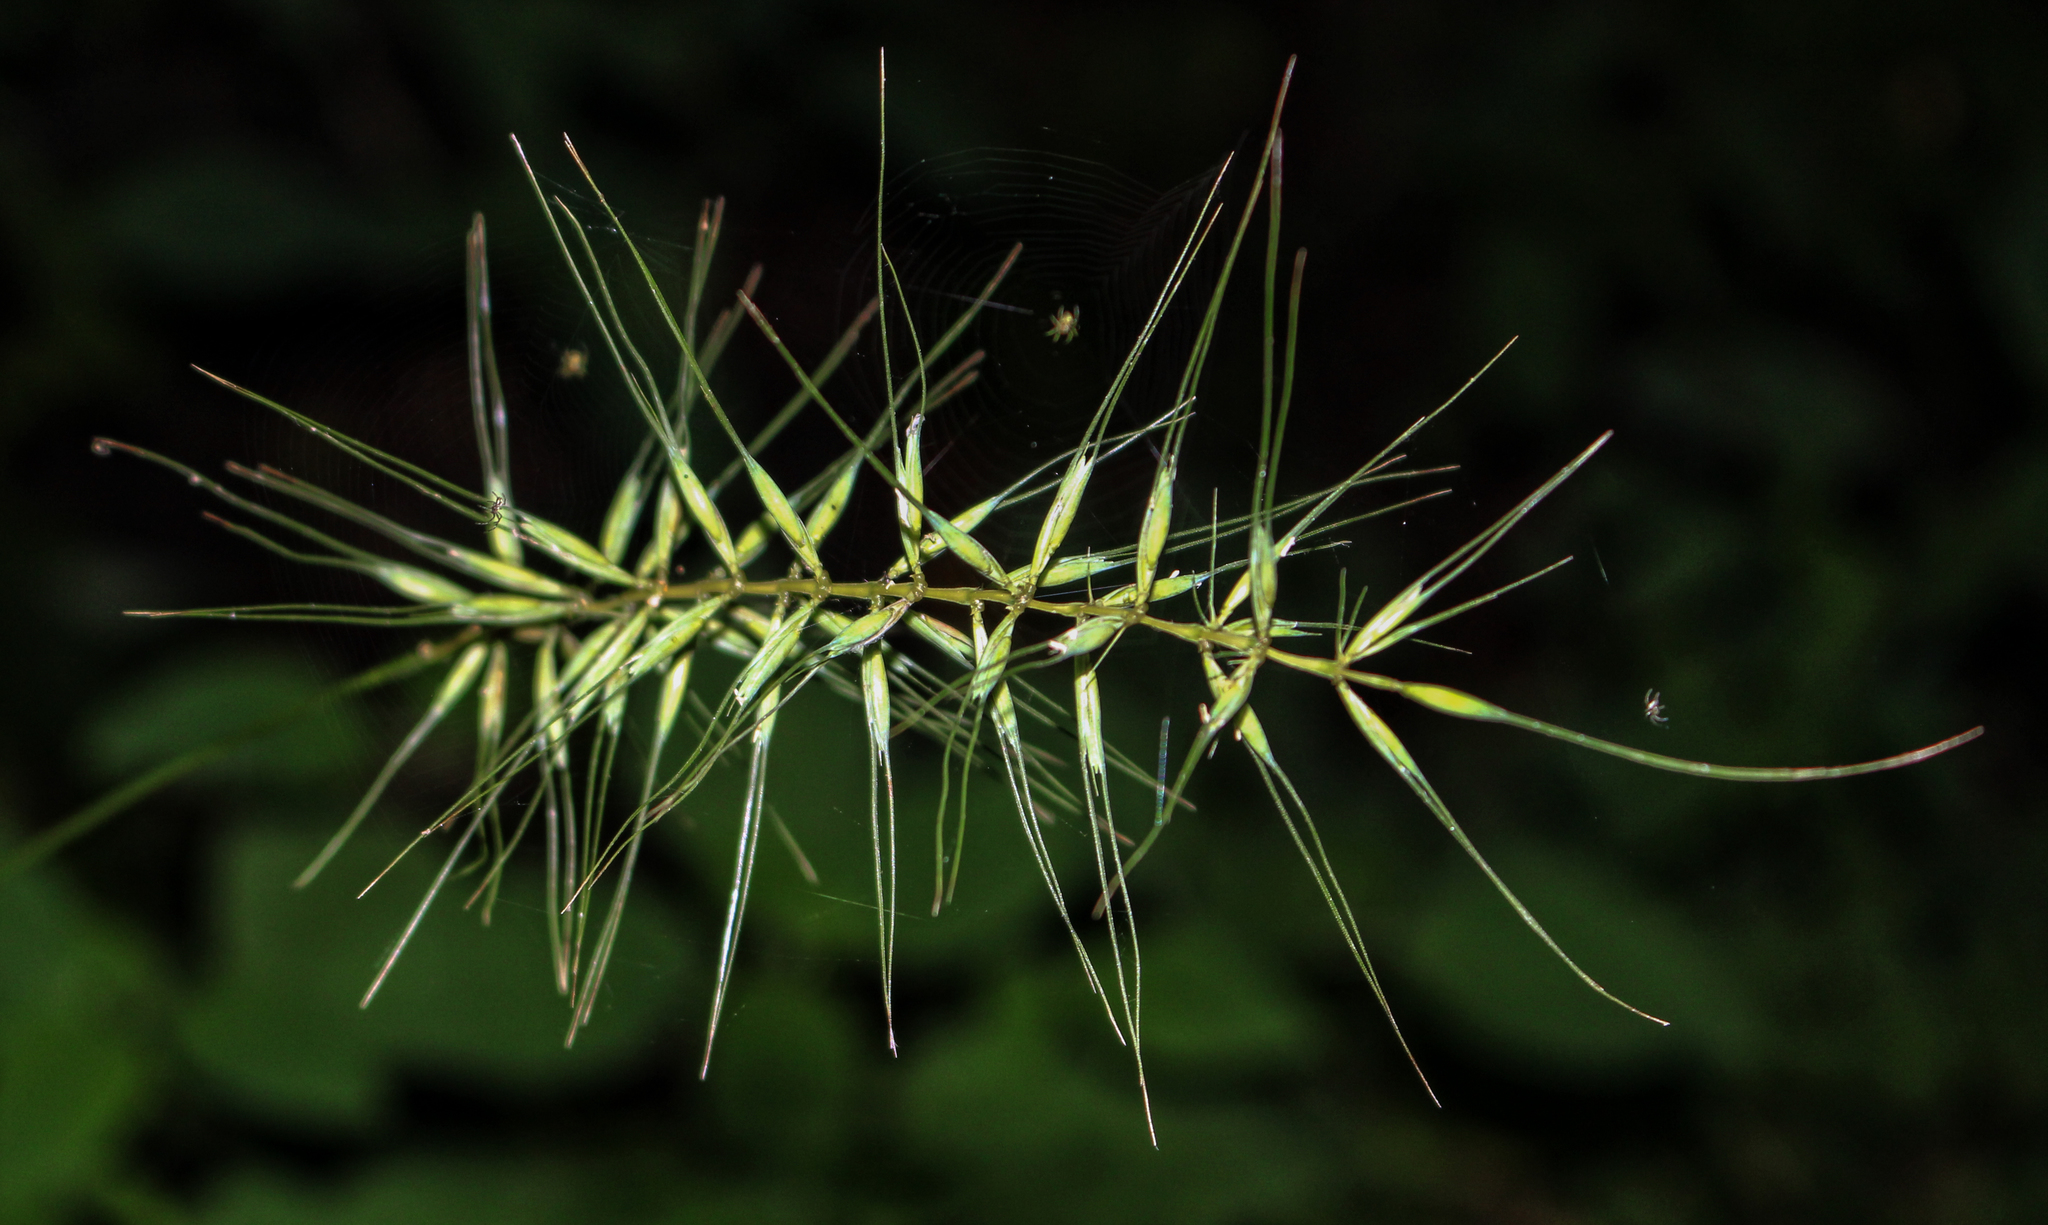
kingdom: Plantae
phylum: Tracheophyta
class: Liliopsida
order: Poales
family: Poaceae
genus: Elymus
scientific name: Elymus hystrix
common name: Bottlebrush grass
